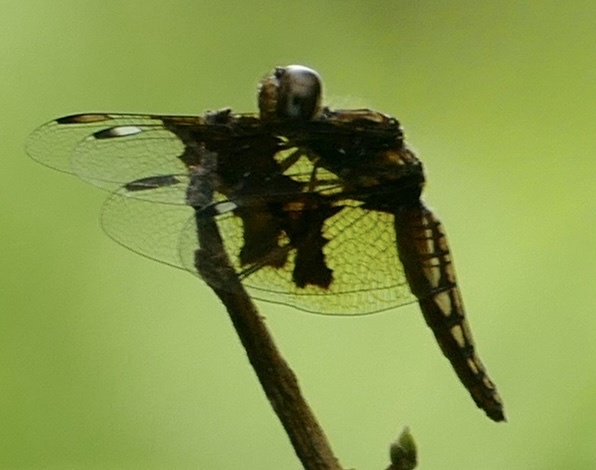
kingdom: Animalia
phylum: Arthropoda
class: Insecta
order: Odonata
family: Libellulidae
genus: Palpopleura
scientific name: Palpopleura lucia
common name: Lucia widow
